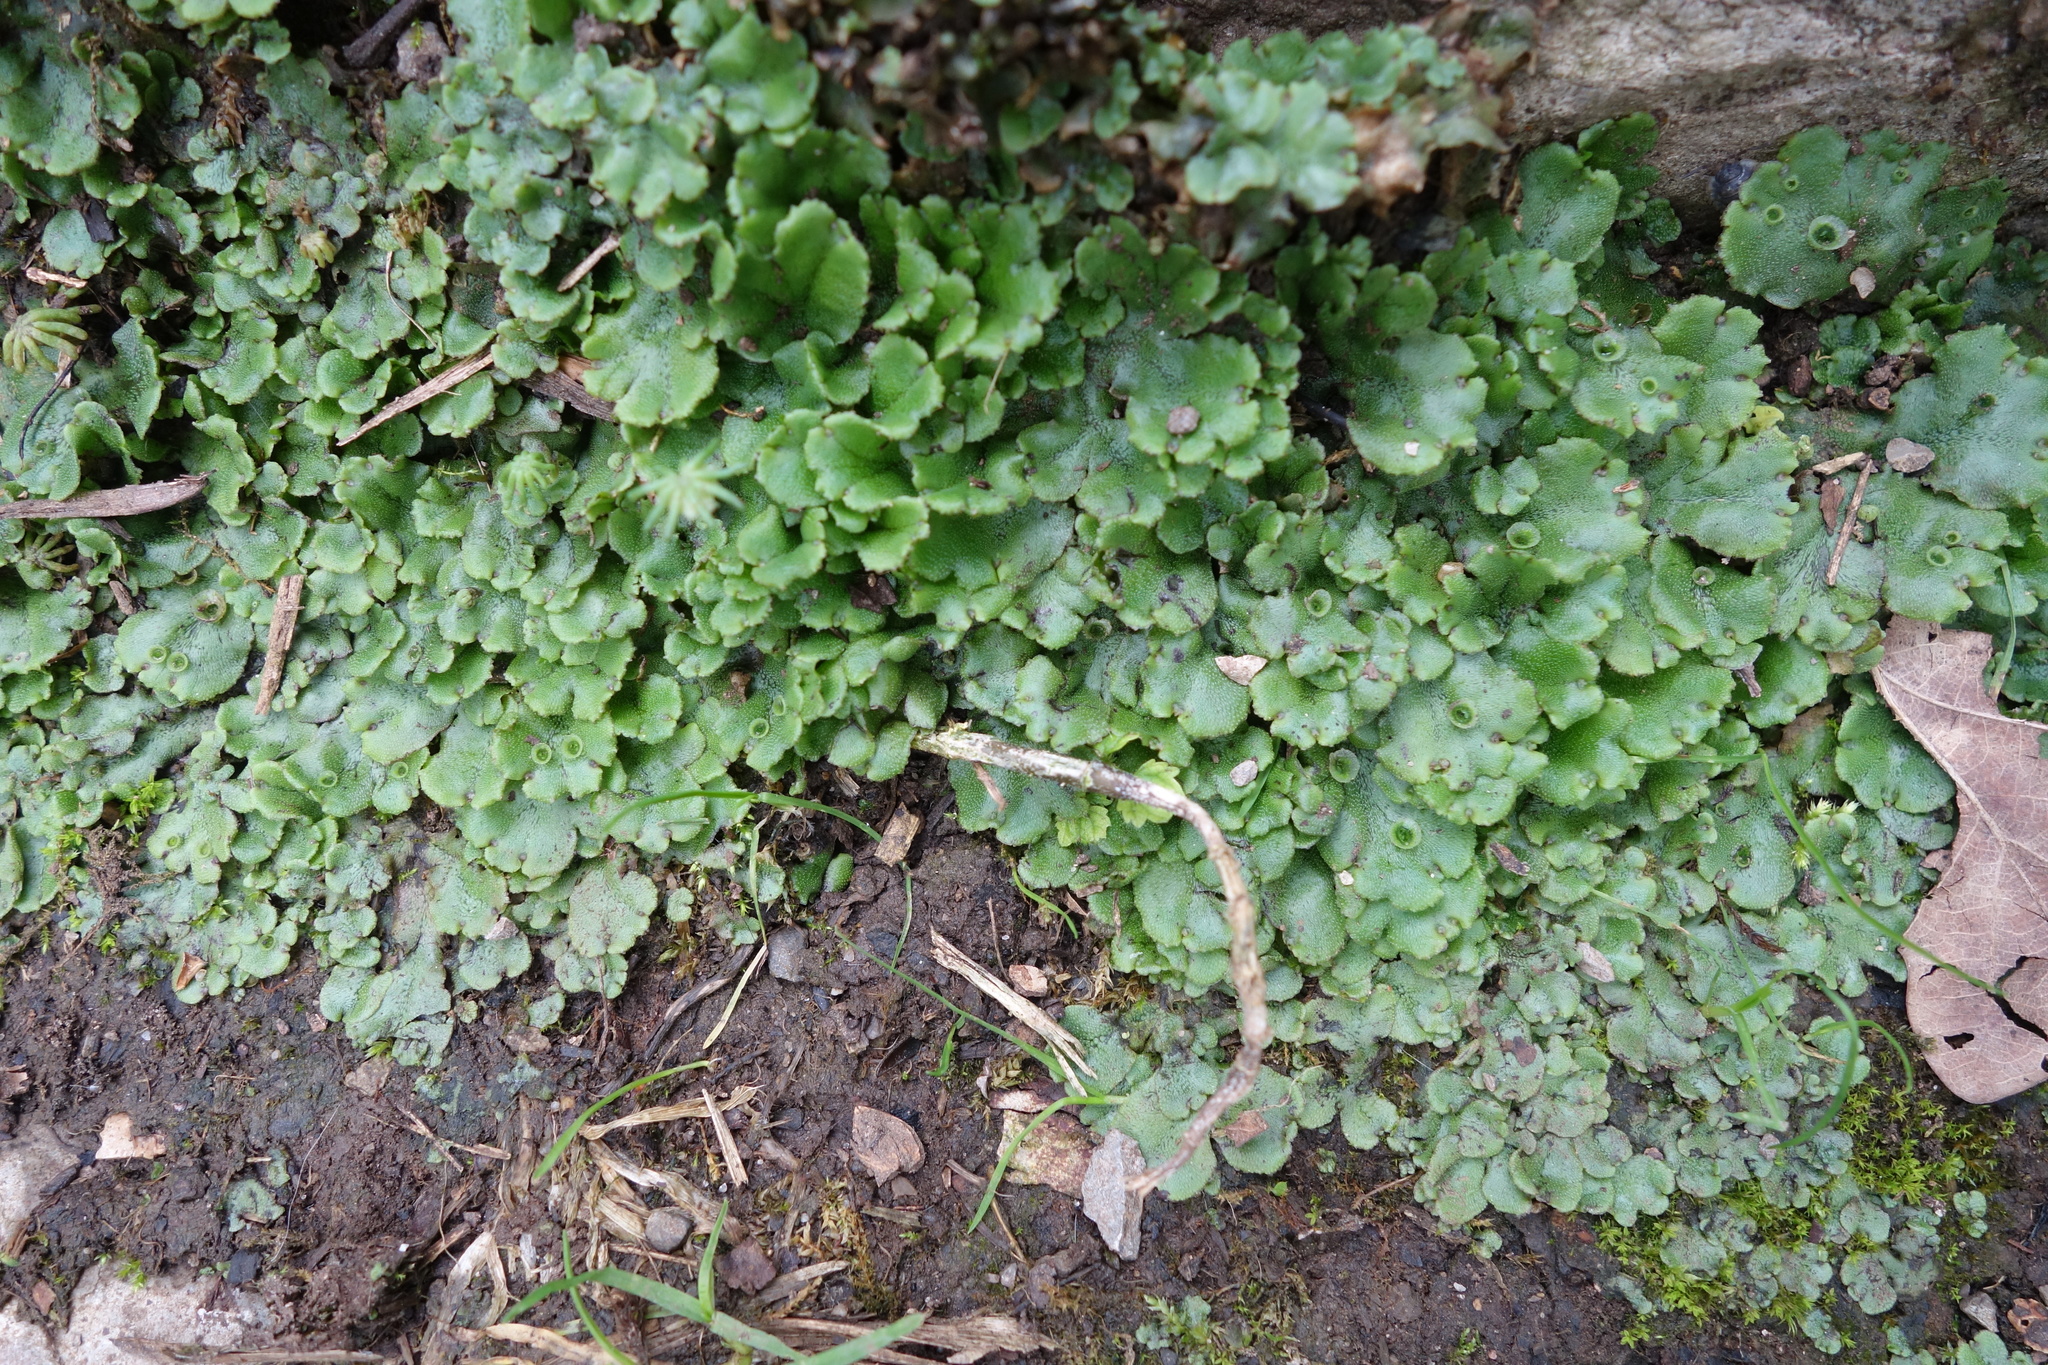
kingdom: Plantae
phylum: Marchantiophyta
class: Marchantiopsida
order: Marchantiales
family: Marchantiaceae
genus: Marchantia
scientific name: Marchantia polymorpha
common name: Common liverwort
